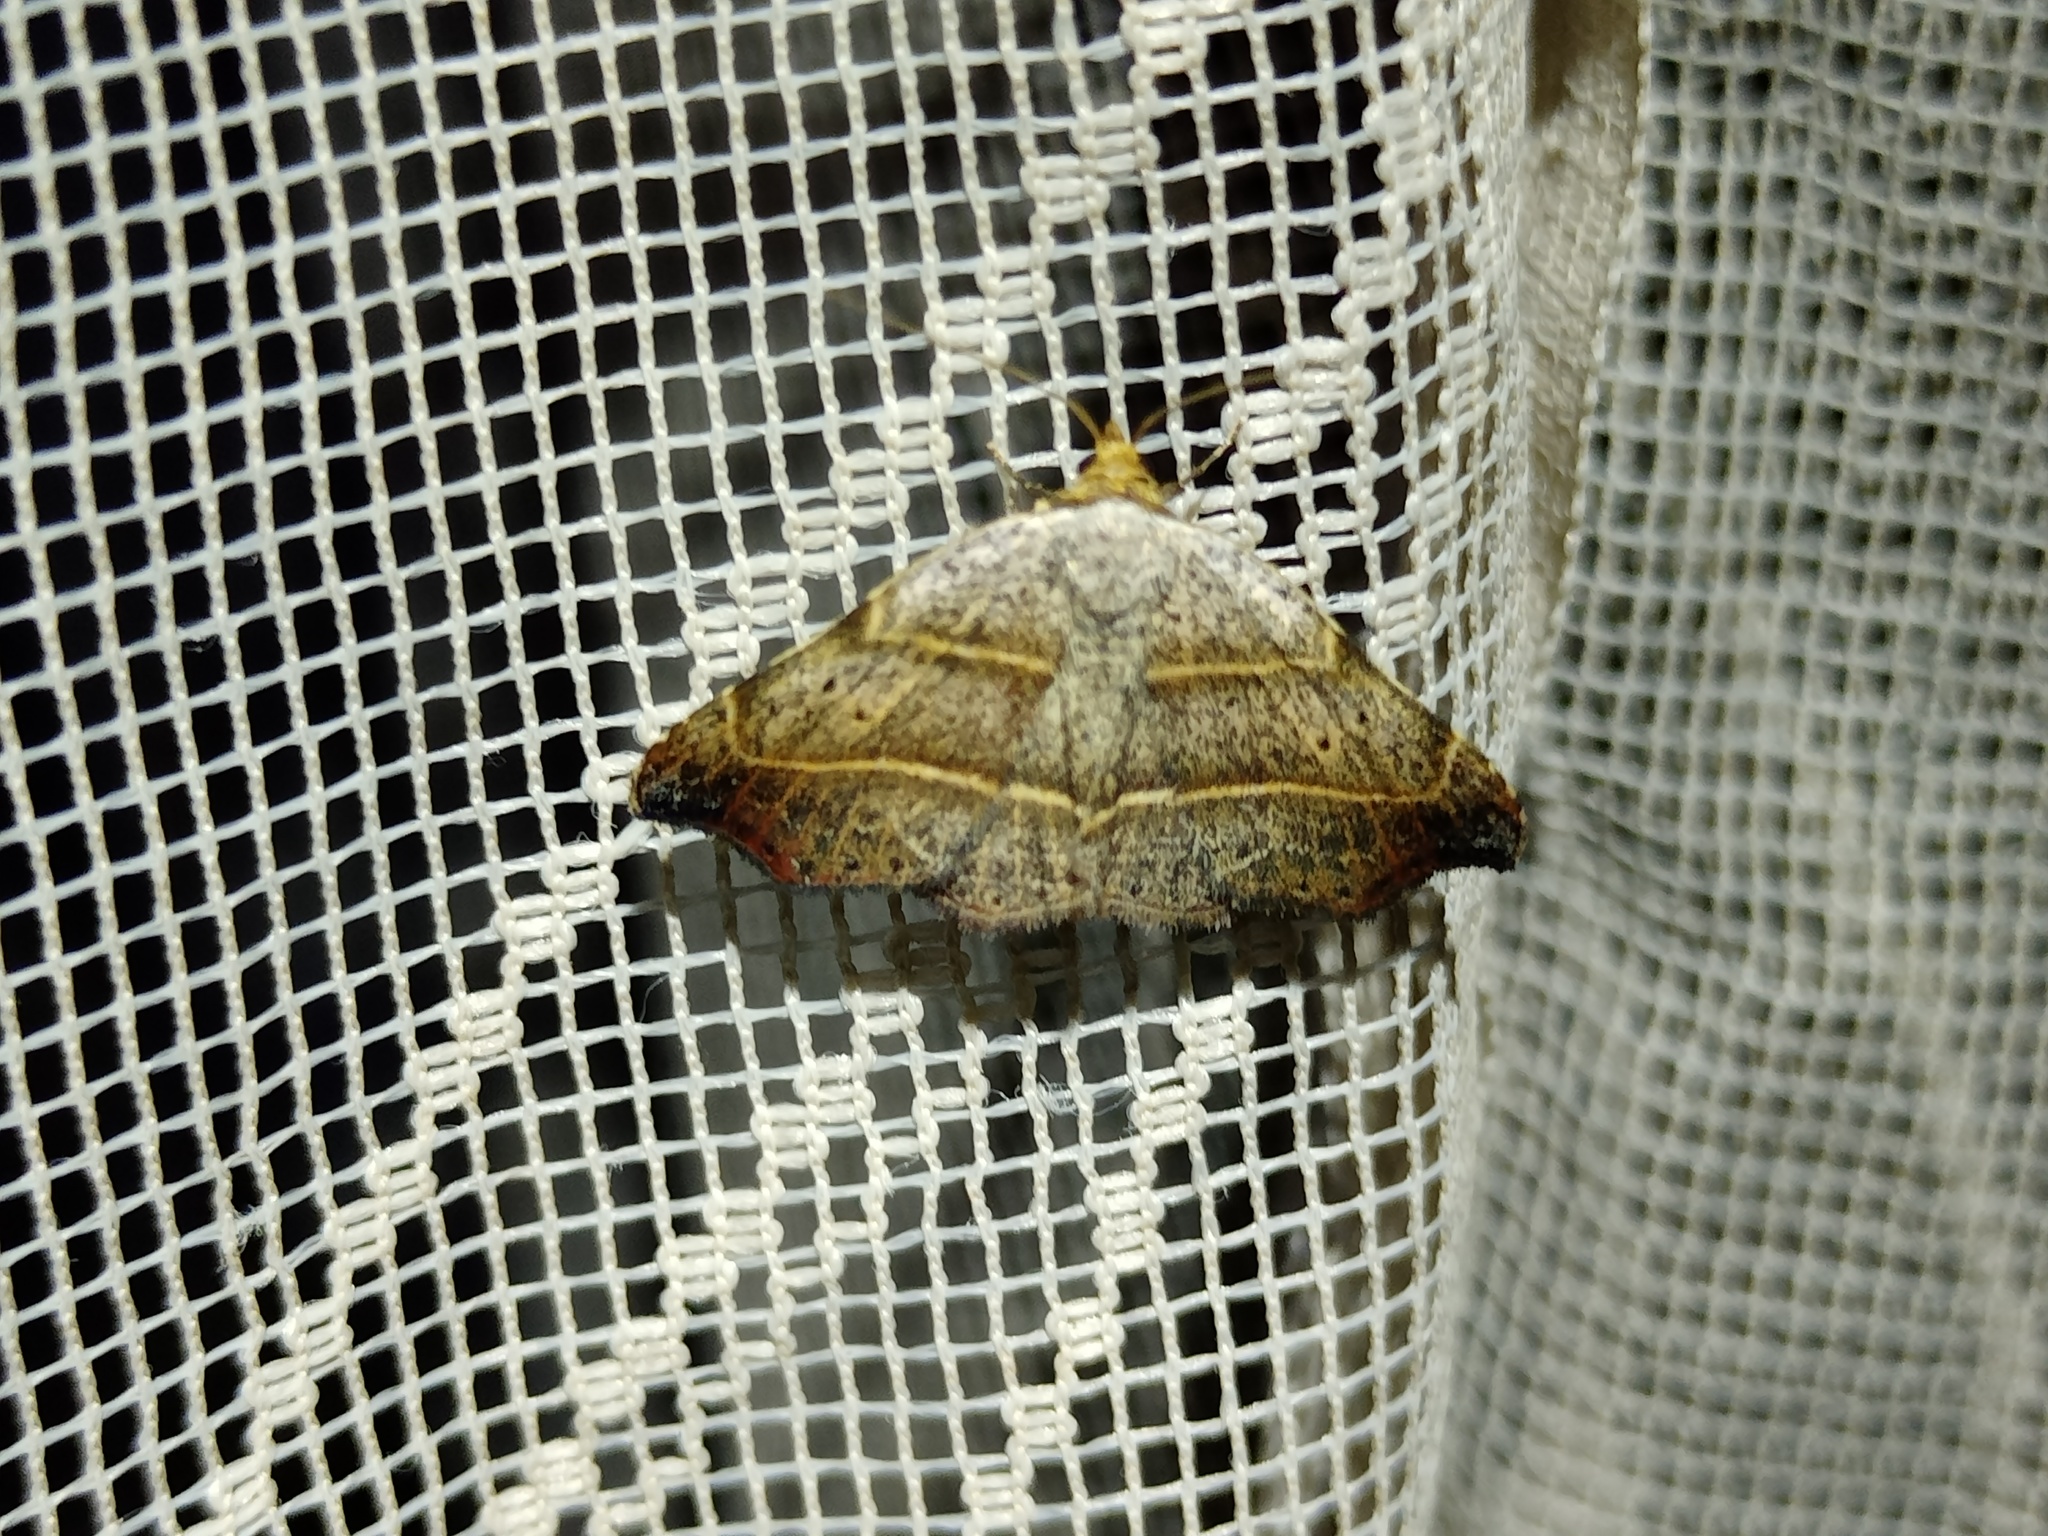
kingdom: Animalia
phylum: Arthropoda
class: Insecta
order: Lepidoptera
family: Erebidae
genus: Laspeyria
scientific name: Laspeyria flexula
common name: Beautiful hook-tip
